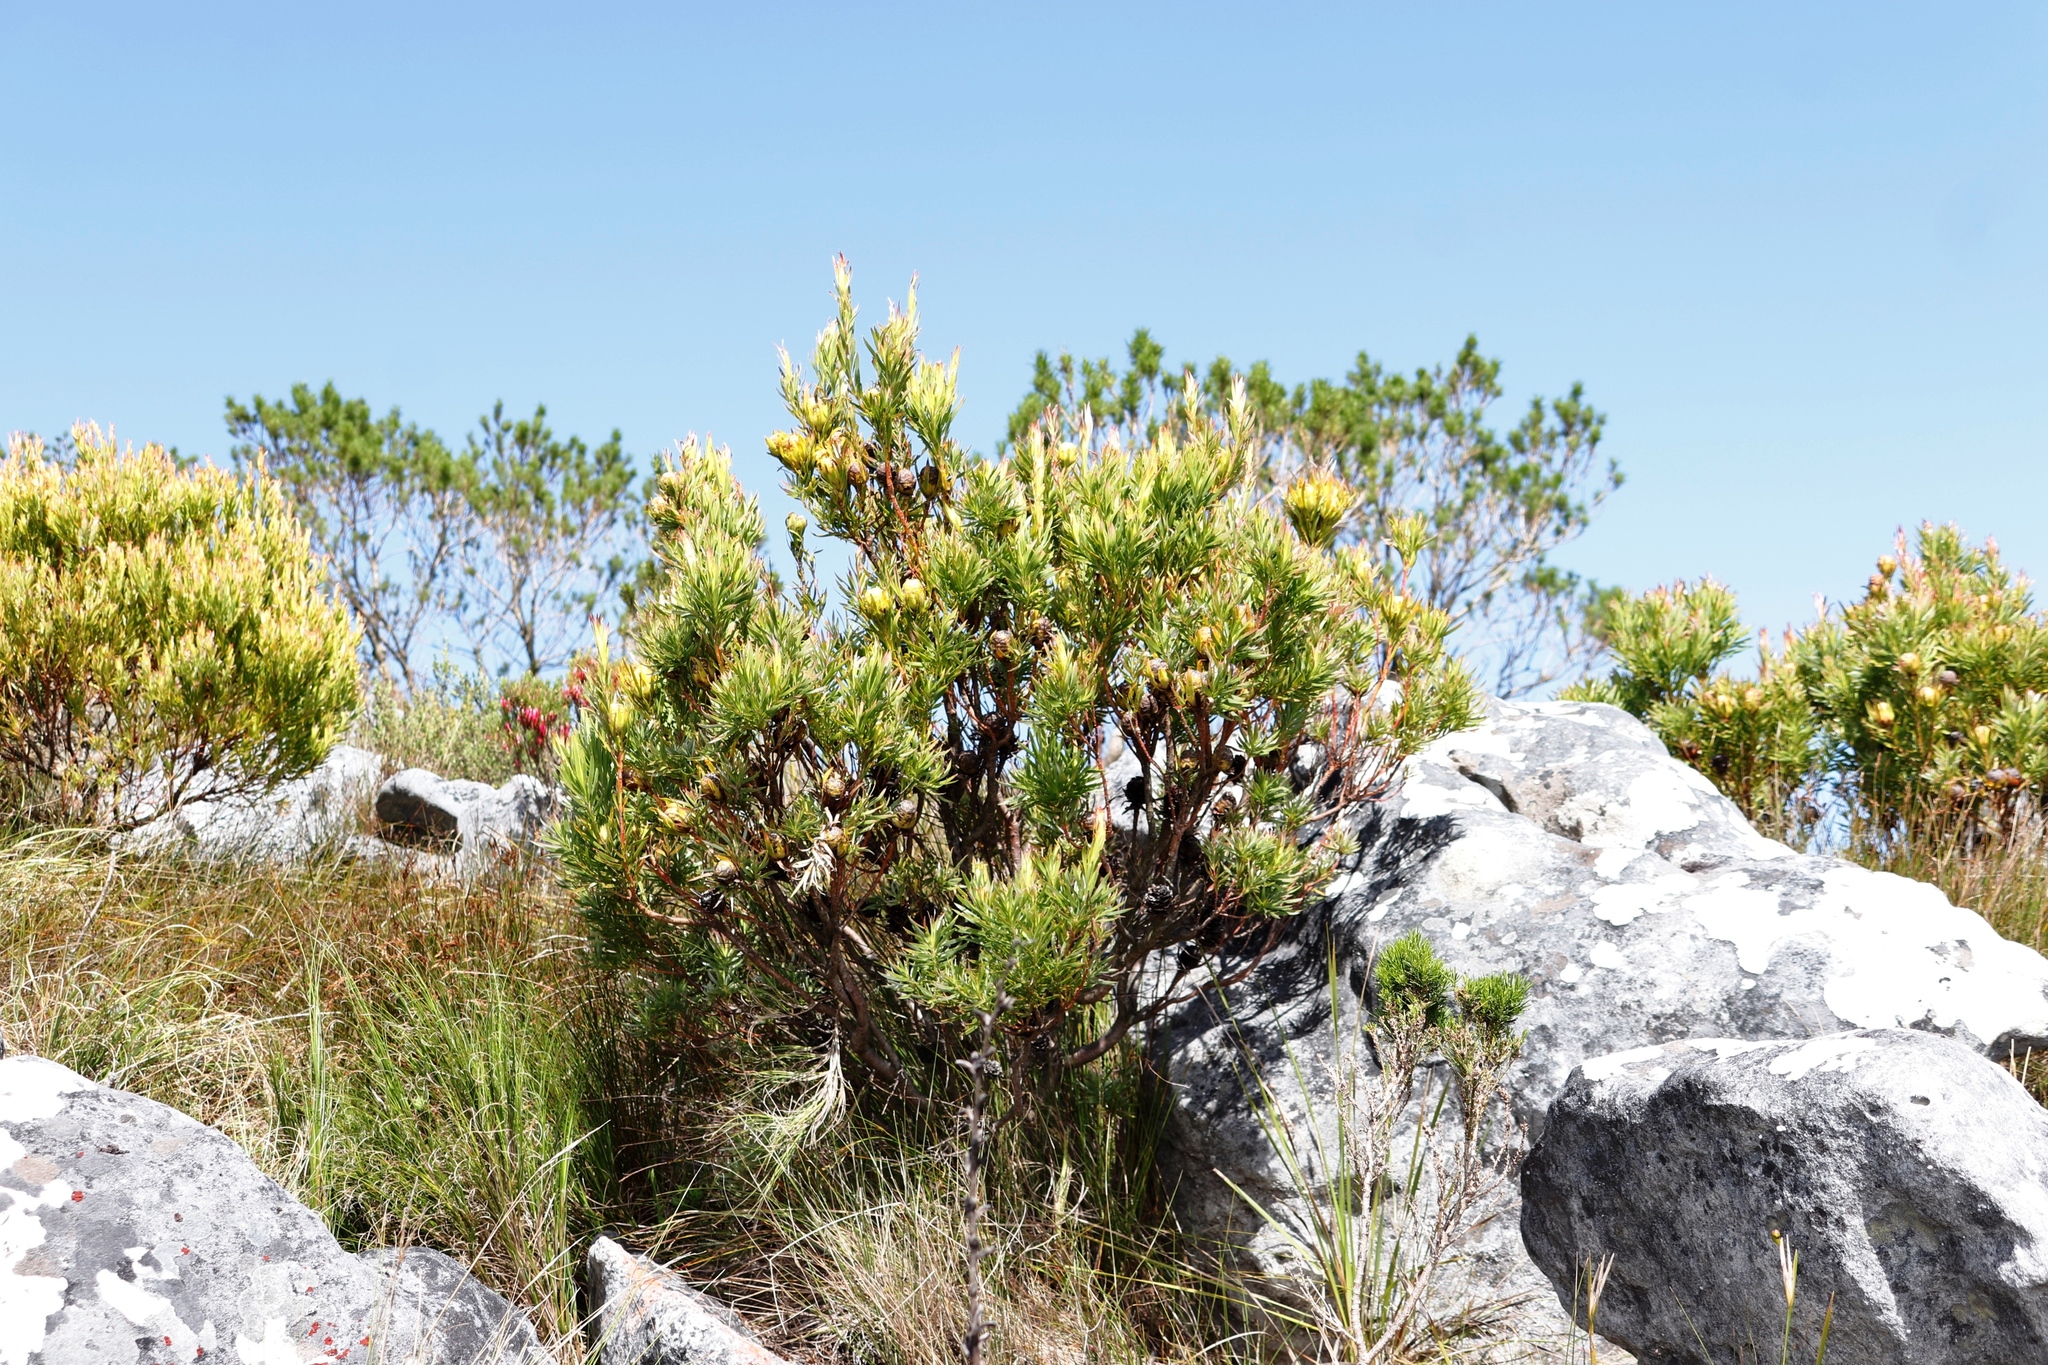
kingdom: Plantae
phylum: Tracheophyta
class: Magnoliopsida
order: Proteales
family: Proteaceae
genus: Leucadendron
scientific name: Leucadendron xanthoconus
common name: Sickle-leaf conebush
